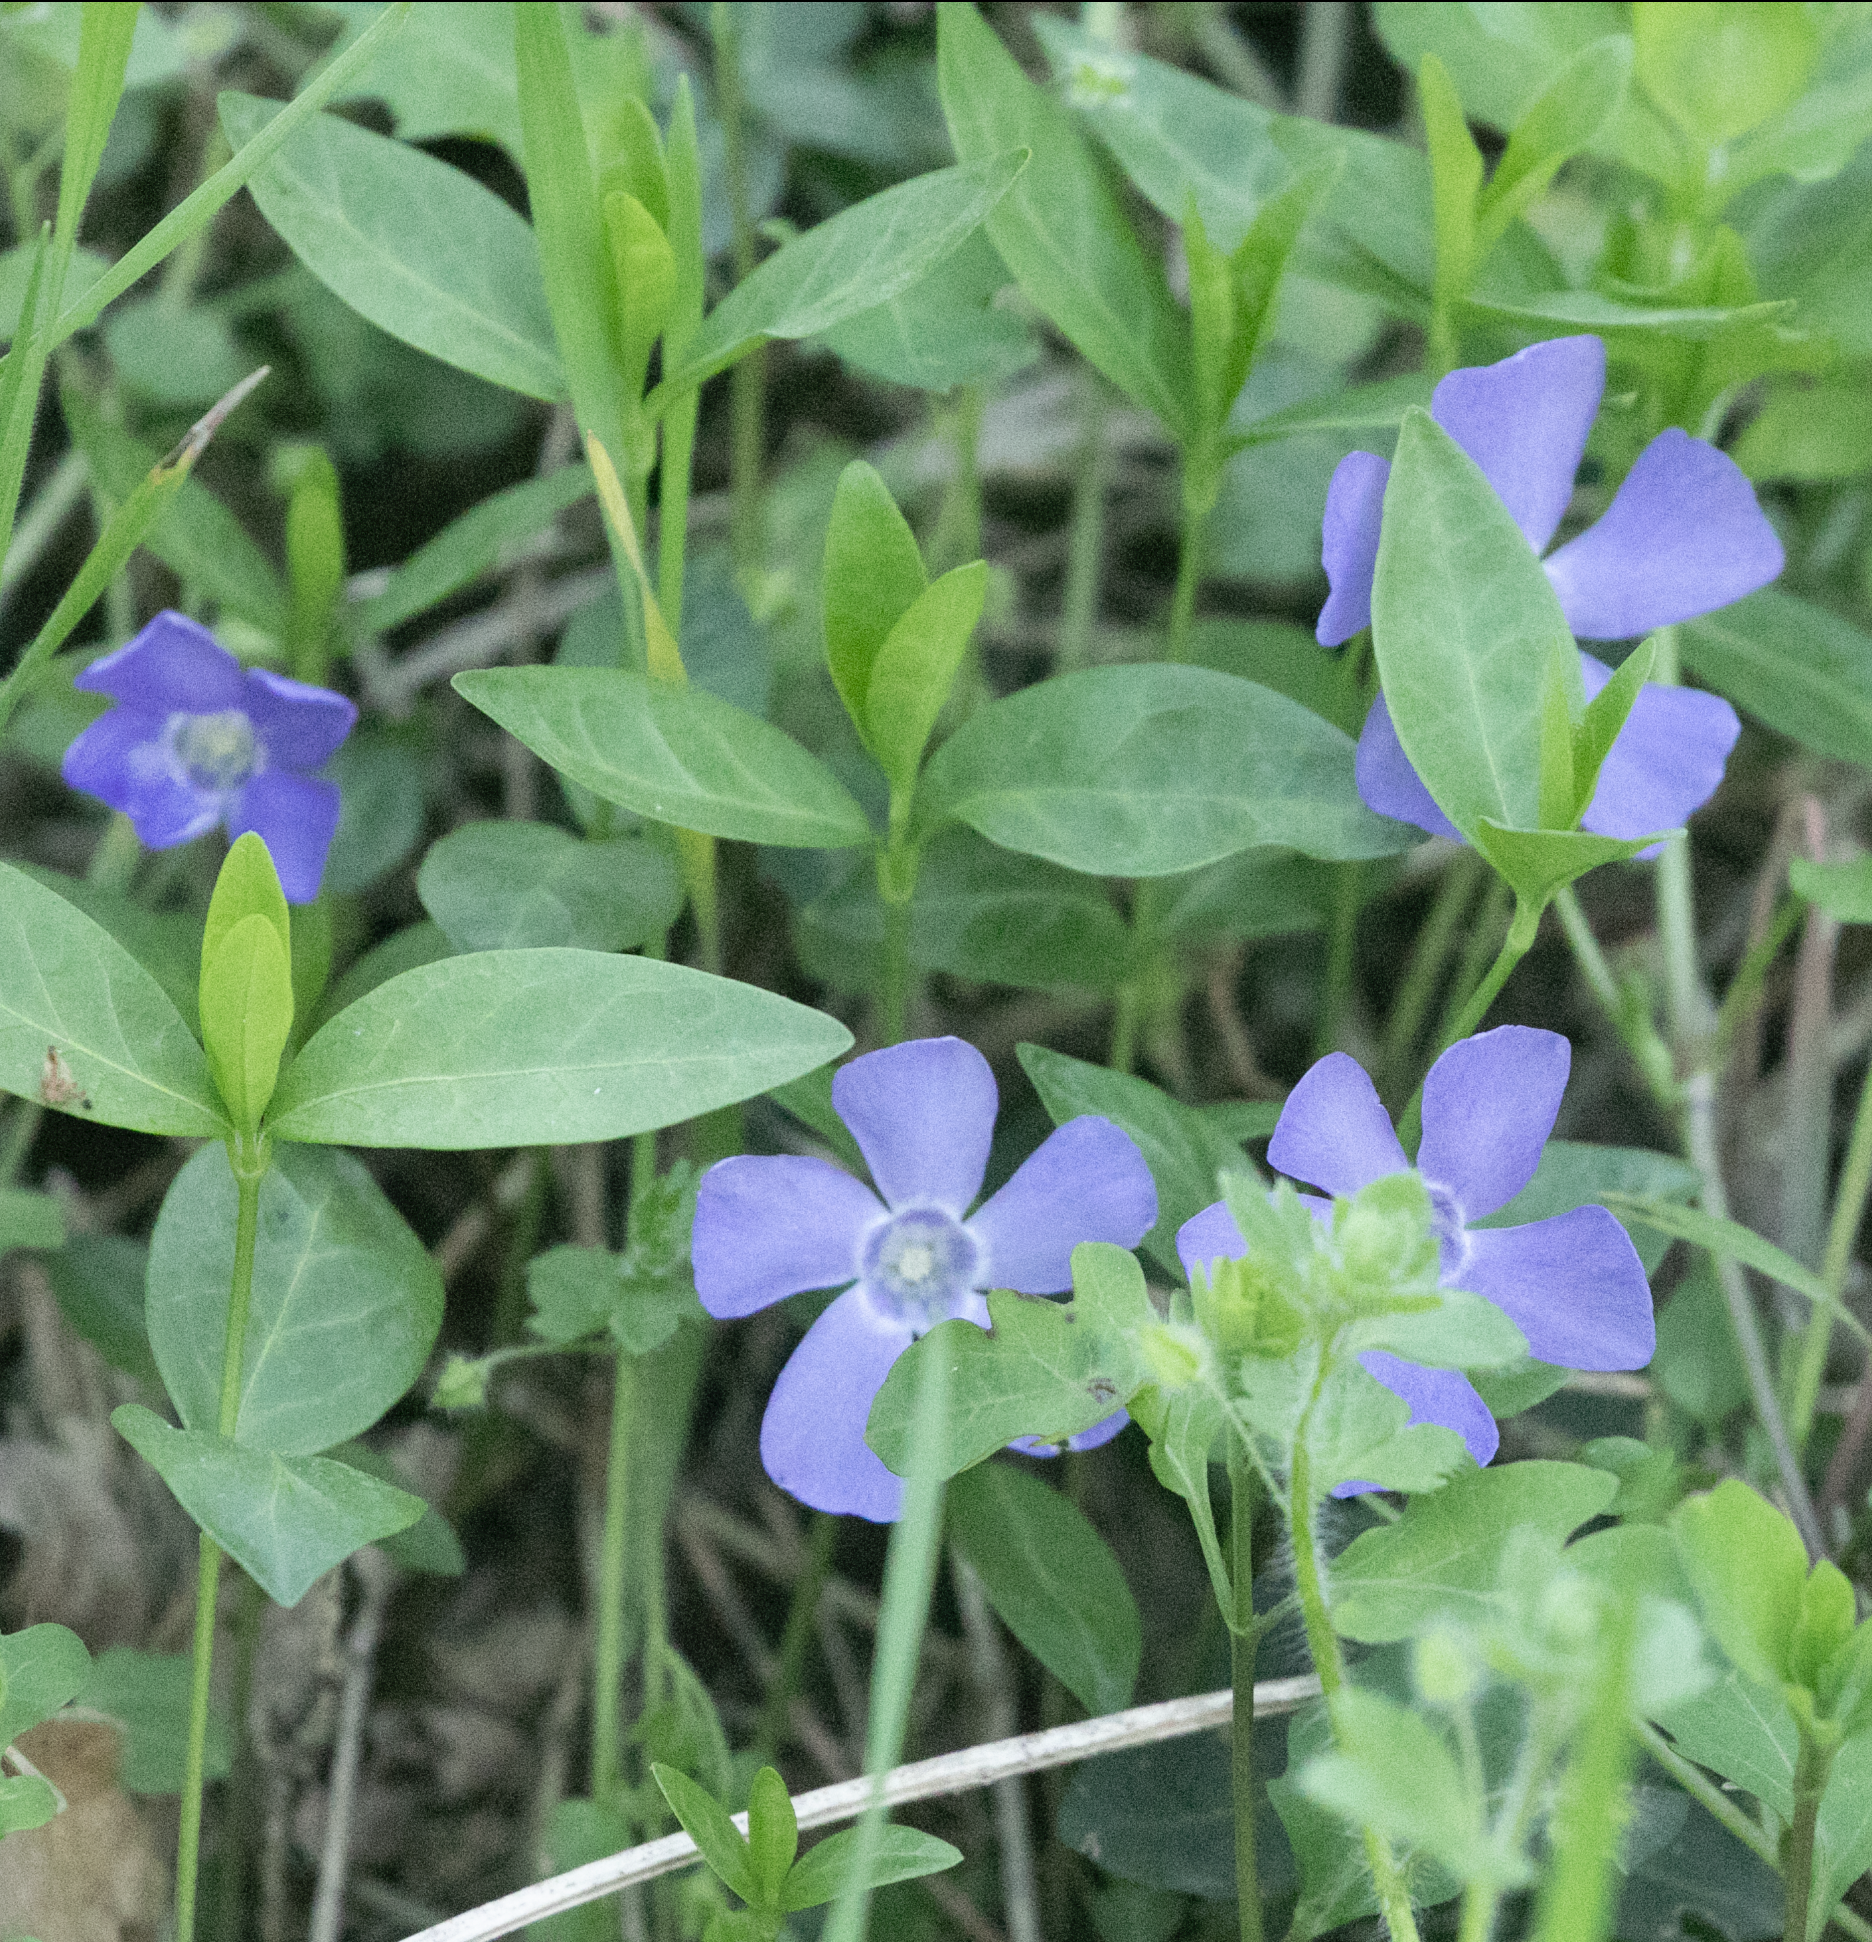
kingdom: Plantae
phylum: Tracheophyta
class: Magnoliopsida
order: Gentianales
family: Apocynaceae
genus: Vinca
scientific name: Vinca minor
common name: Lesser periwinkle
